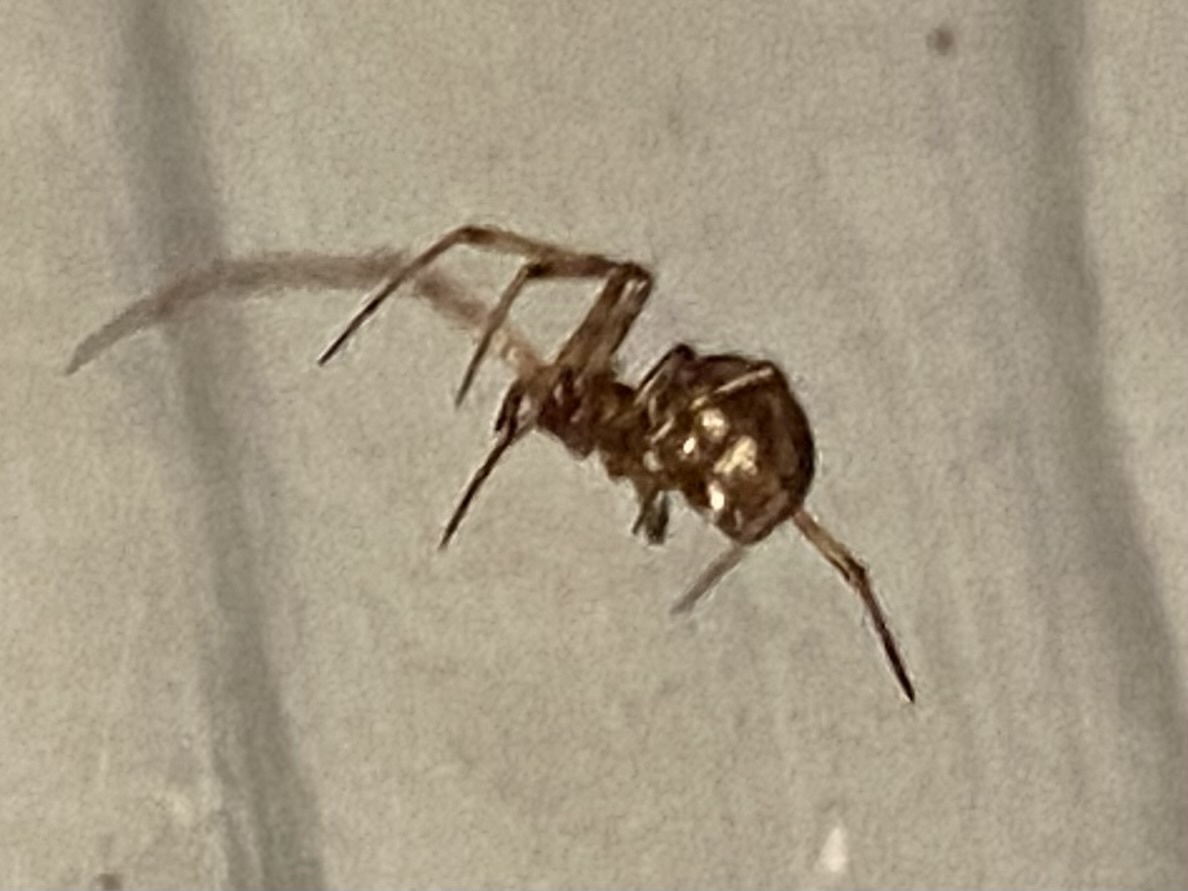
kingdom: Animalia
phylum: Arthropoda
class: Arachnida
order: Araneae
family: Theridiidae
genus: Steatoda
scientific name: Steatoda triangulosa
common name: Triangulate bud spider
